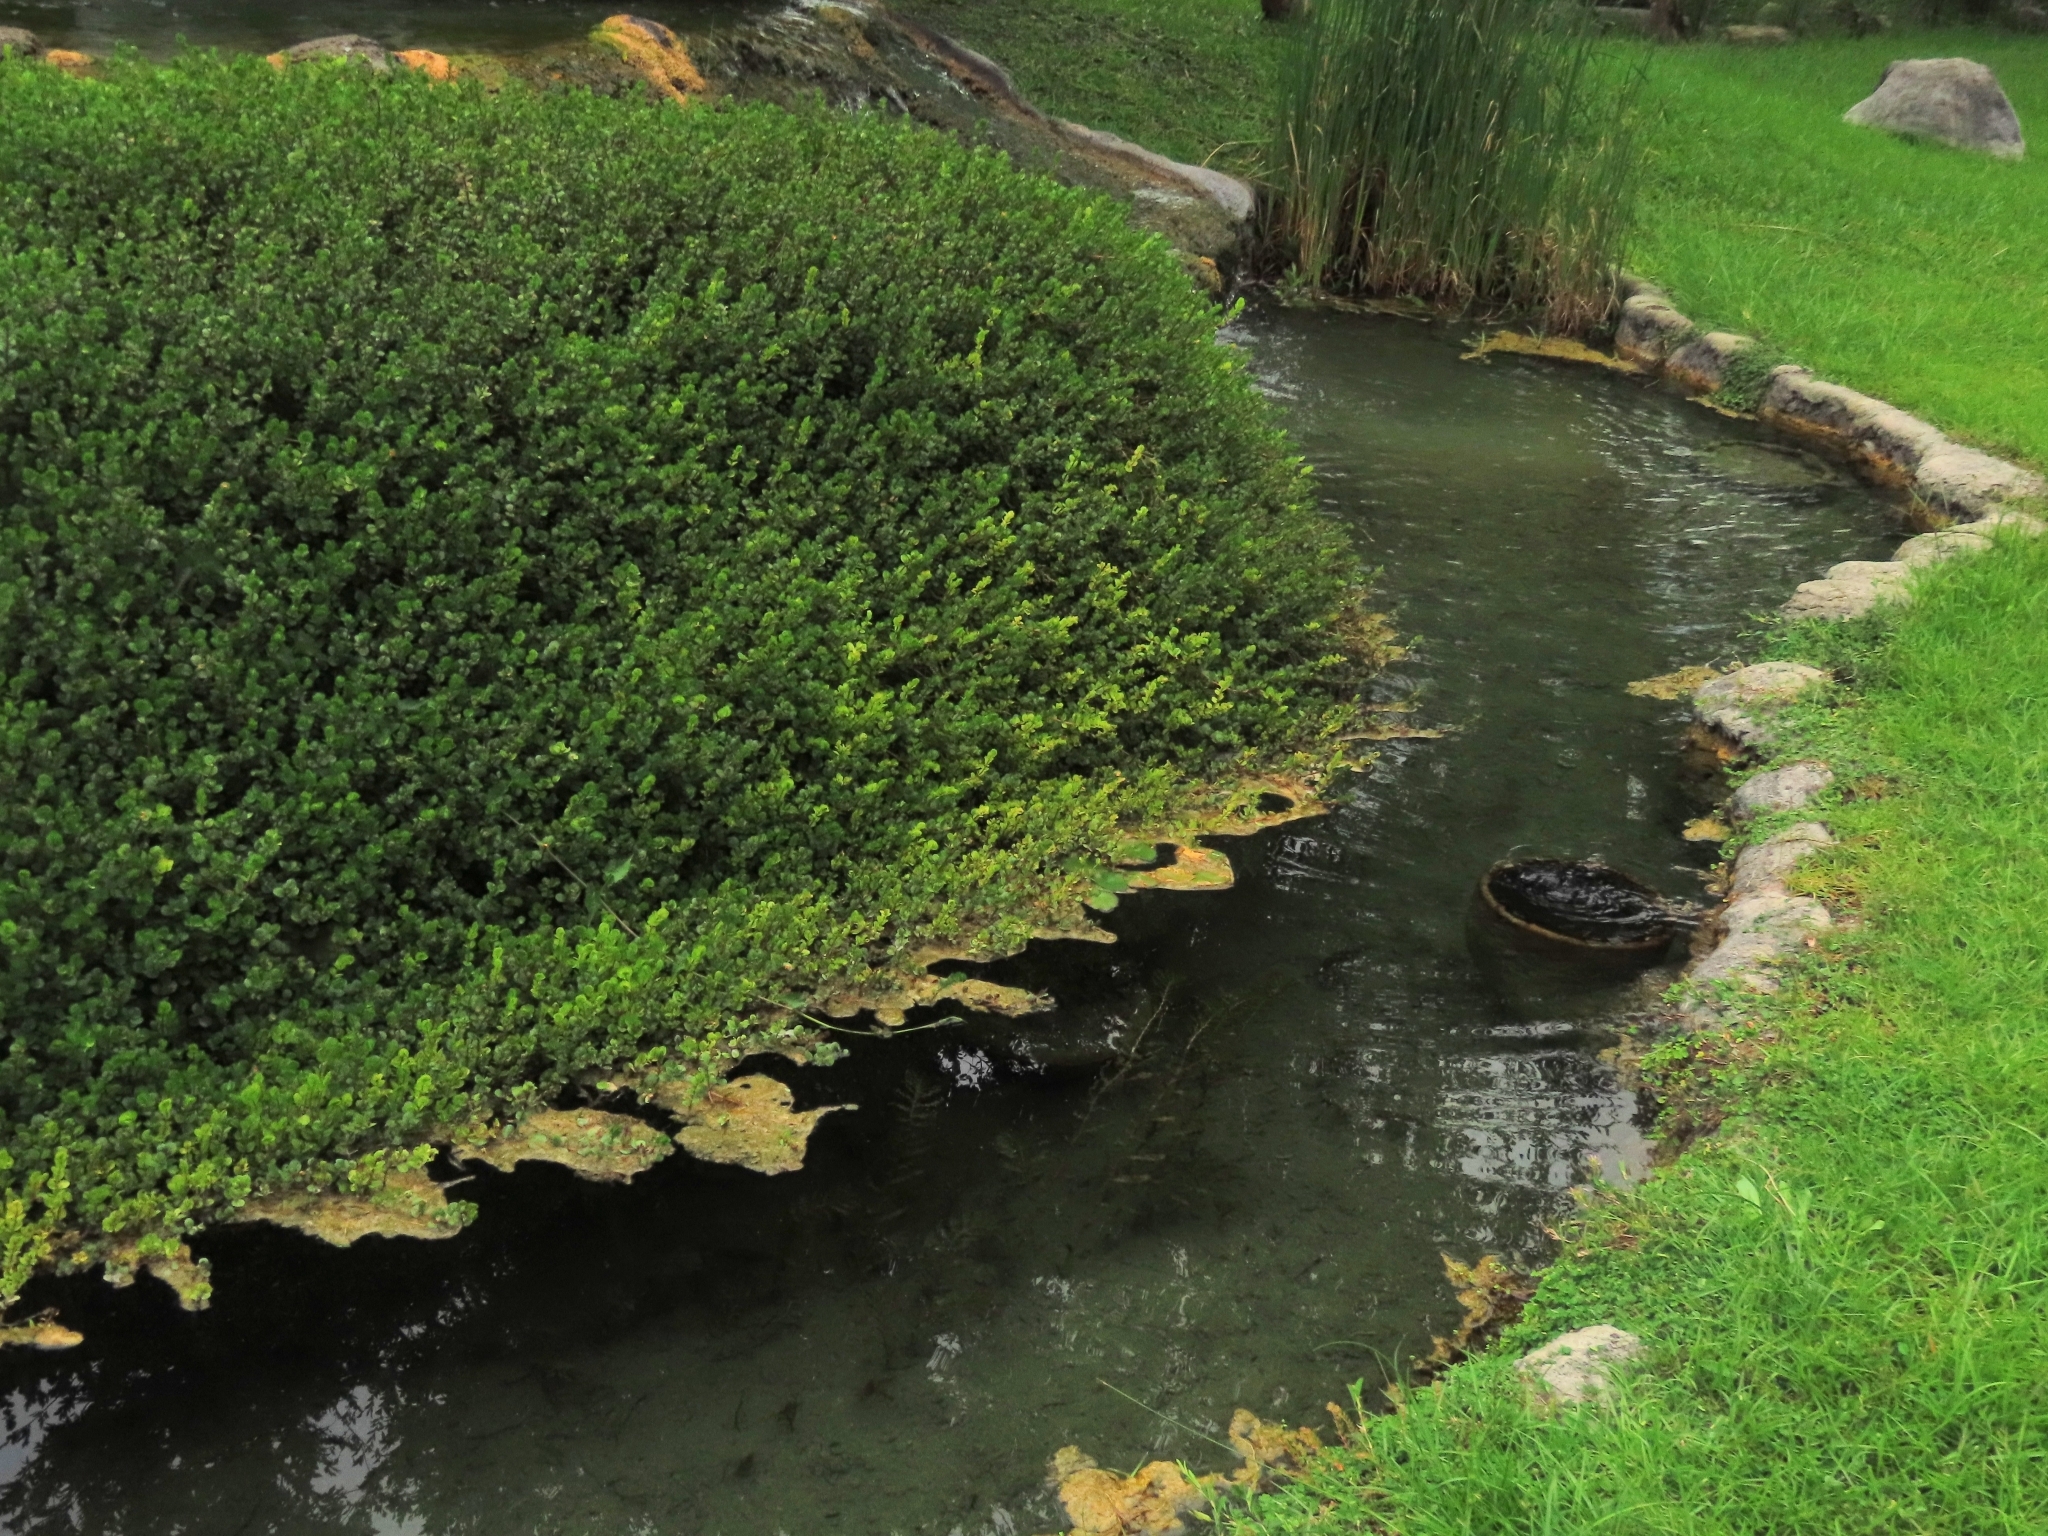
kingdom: Plantae
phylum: Tracheophyta
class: Liliopsida
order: Alismatales
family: Potamogetonaceae
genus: Potamogeton
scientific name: Potamogeton crispus
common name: Curled pondweed
